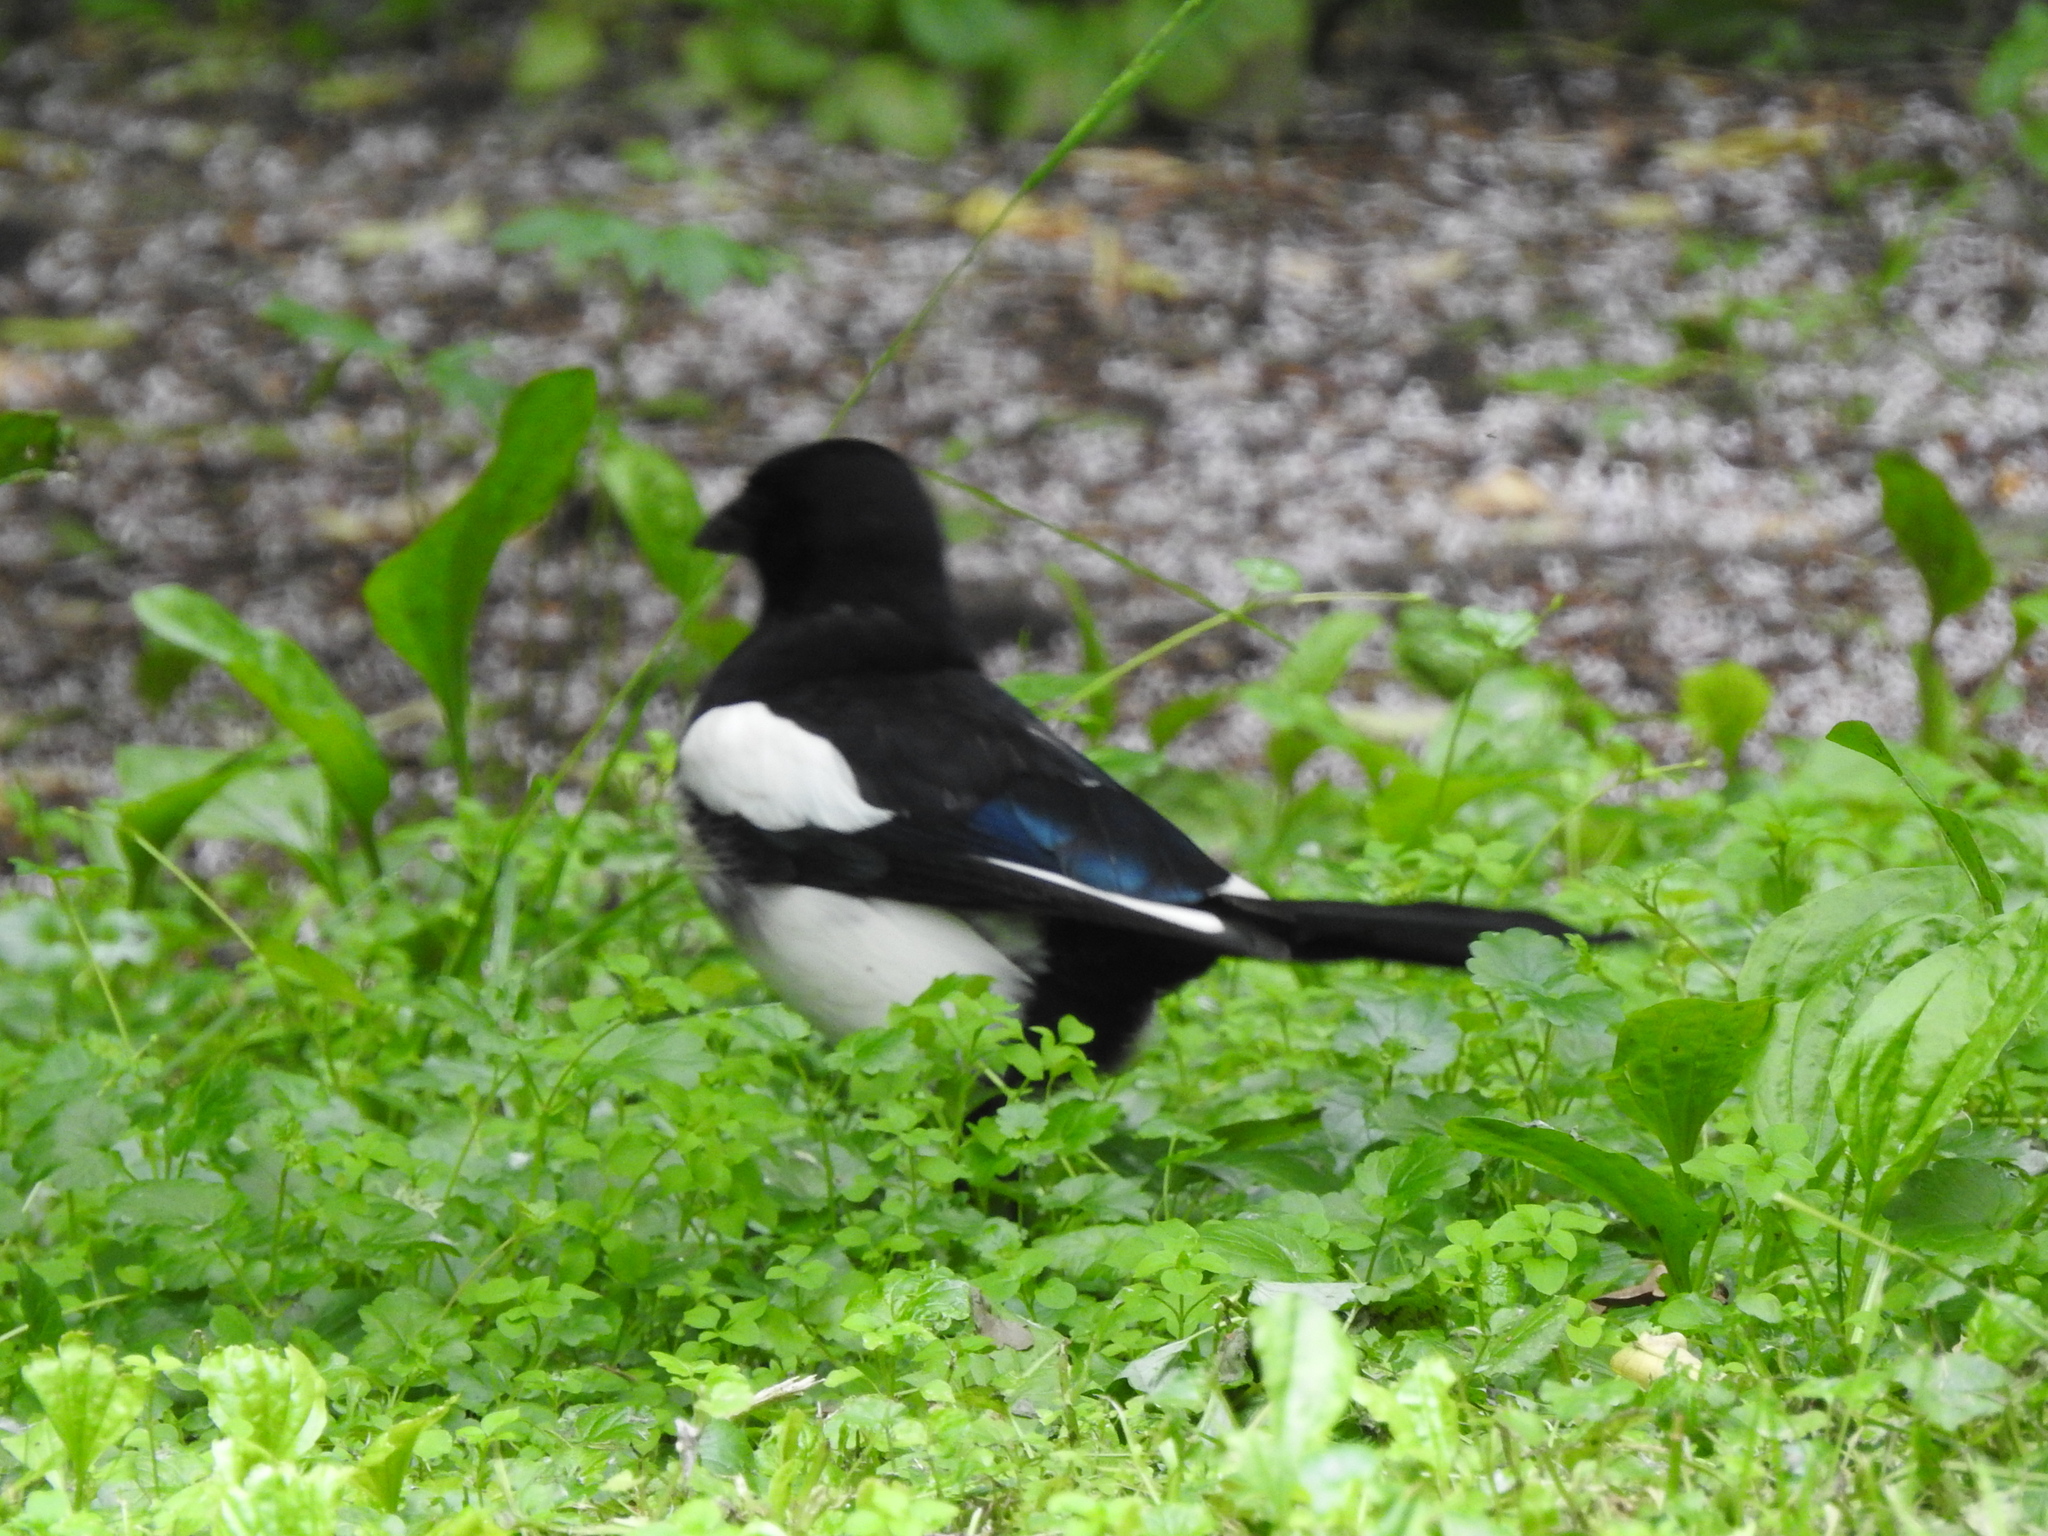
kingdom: Animalia
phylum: Chordata
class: Aves
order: Passeriformes
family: Corvidae
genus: Pica
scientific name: Pica pica
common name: Eurasian magpie
